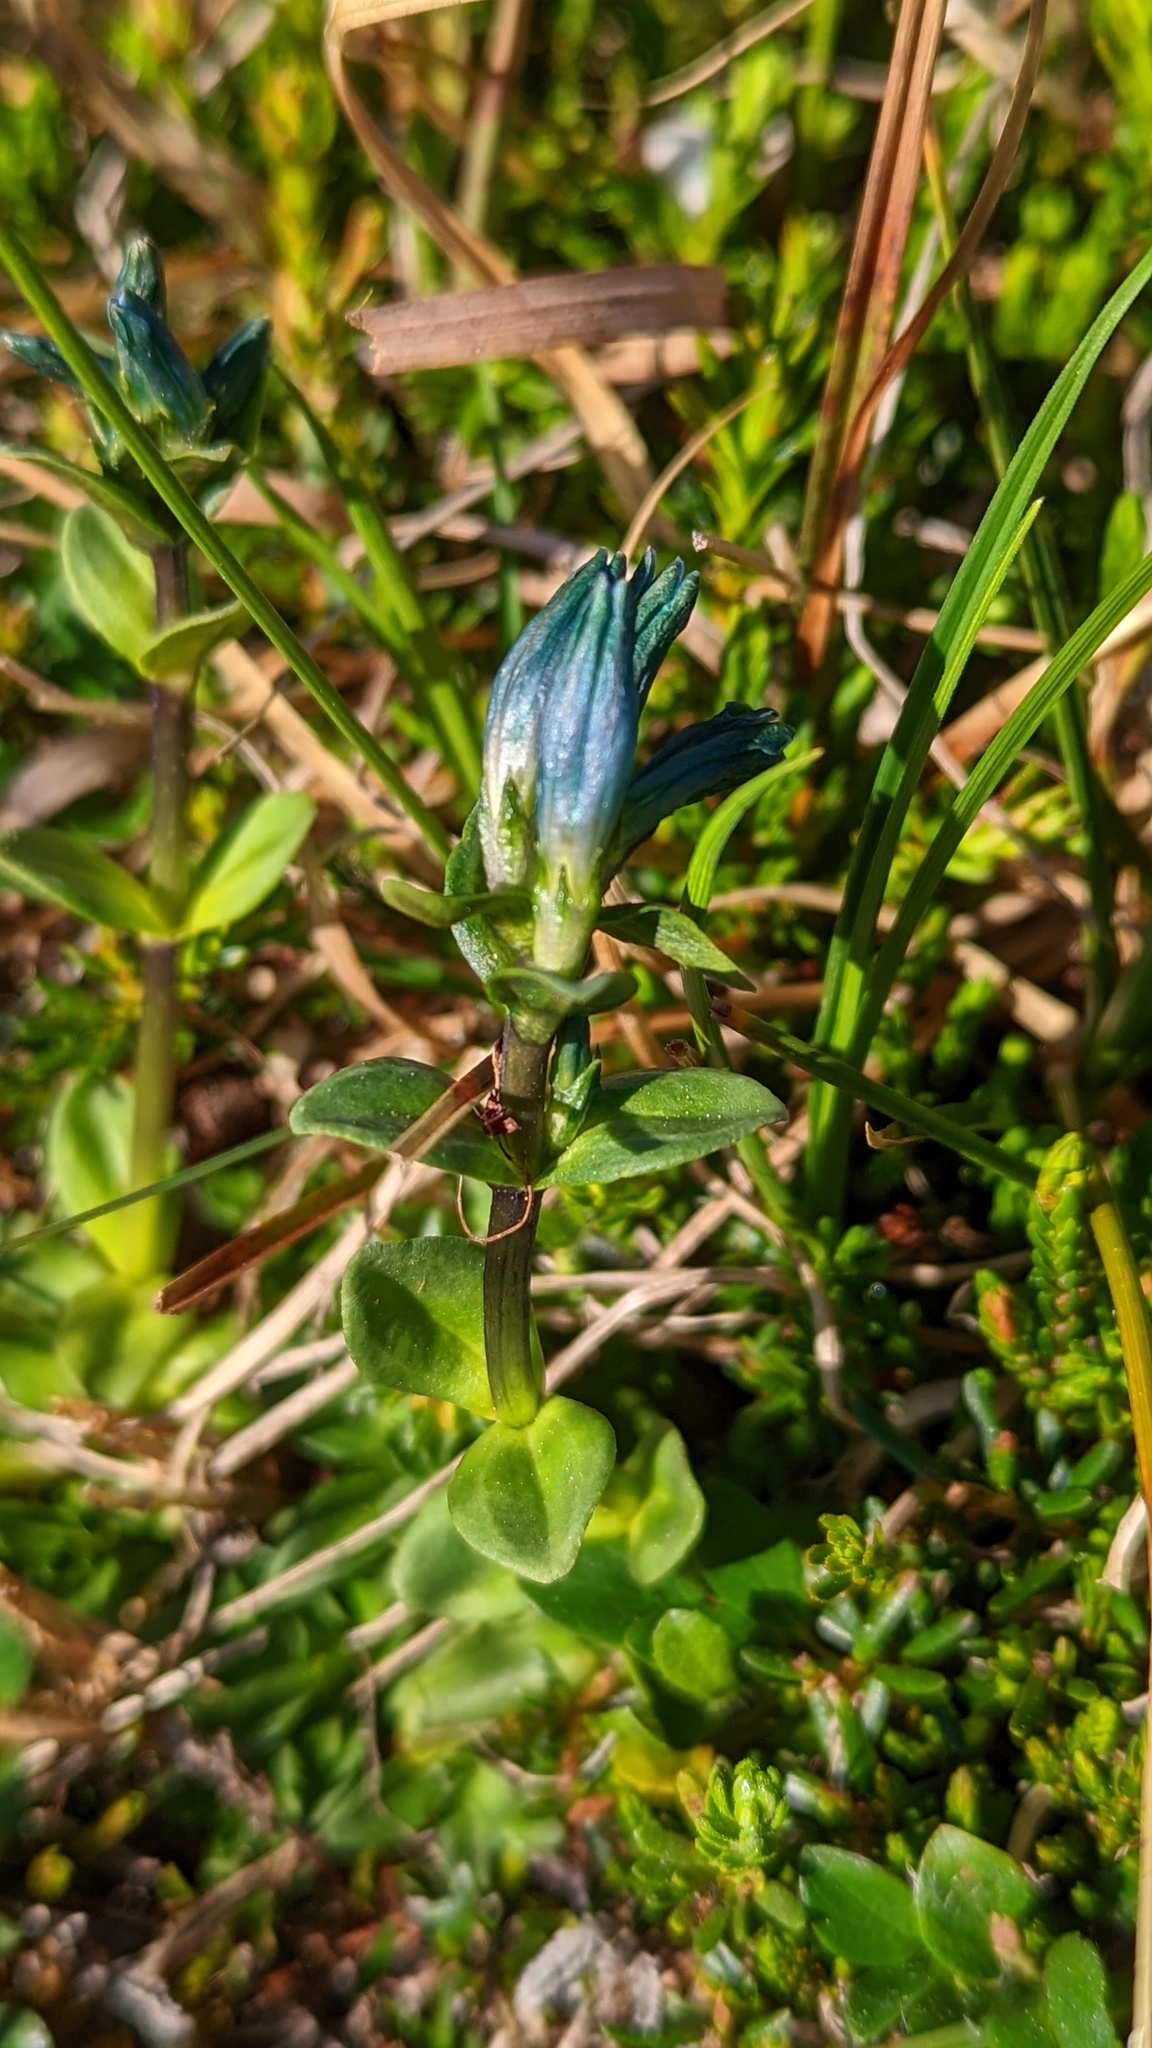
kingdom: Plantae
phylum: Tracheophyta
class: Magnoliopsida
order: Gentianales
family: Gentianaceae
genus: Gentiana
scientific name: Gentiana glauca
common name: Alpine gentian
